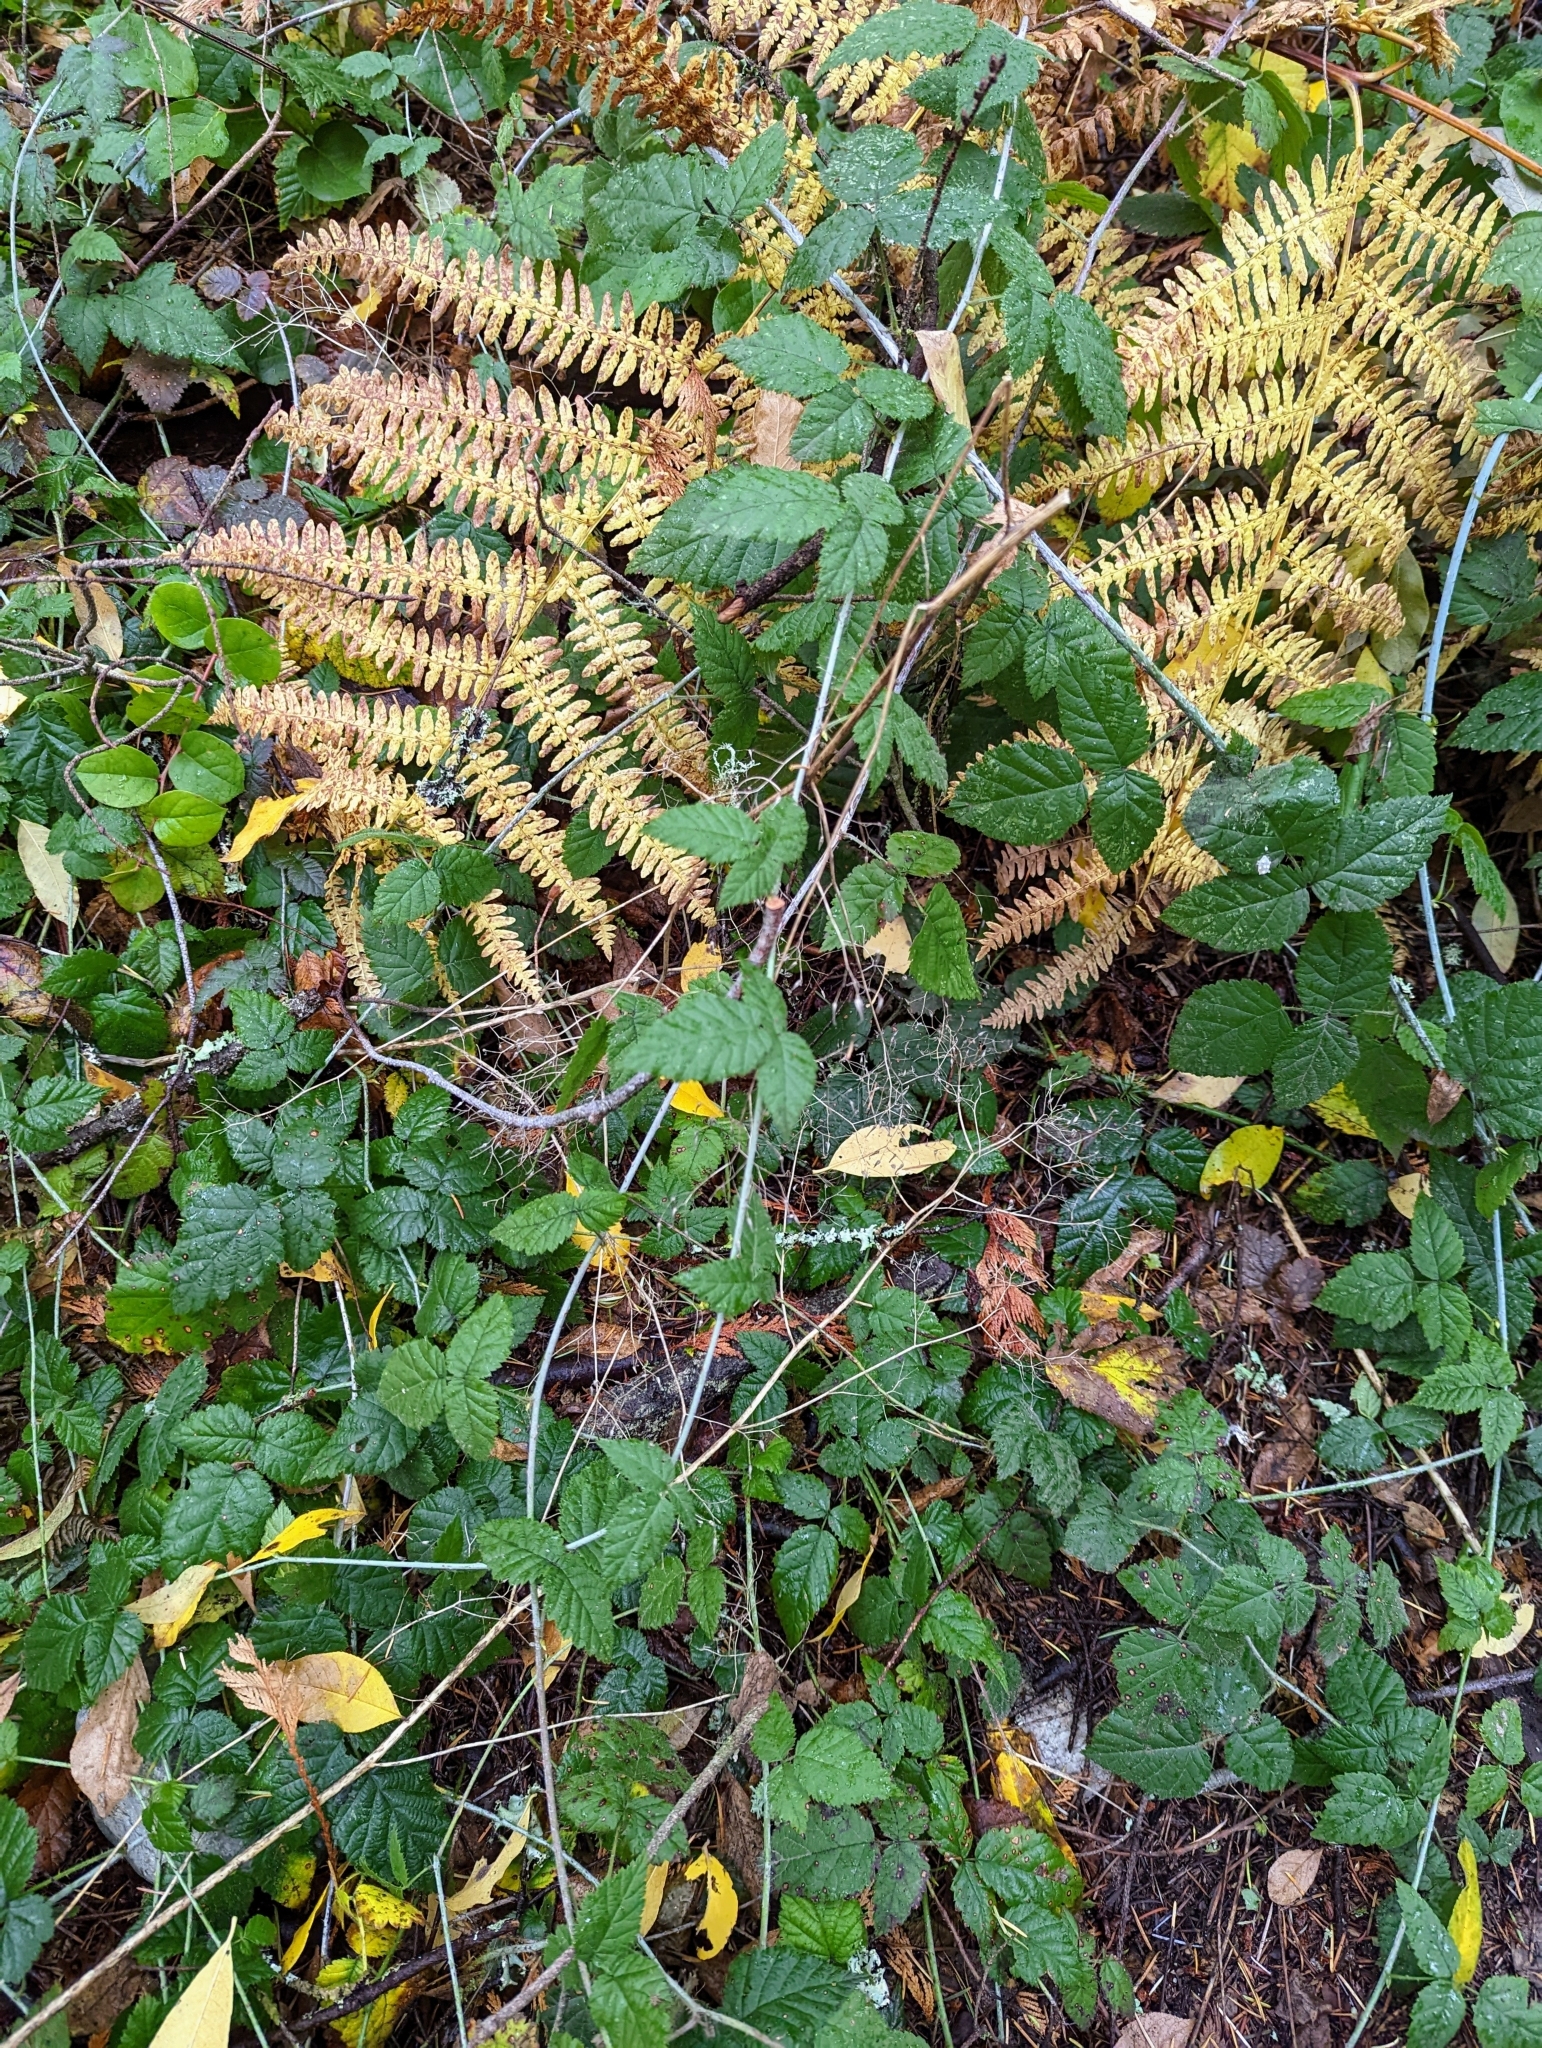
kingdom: Plantae
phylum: Tracheophyta
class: Magnoliopsida
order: Rosales
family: Rosaceae
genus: Rubus
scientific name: Rubus ursinus
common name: Pacific blackberry
